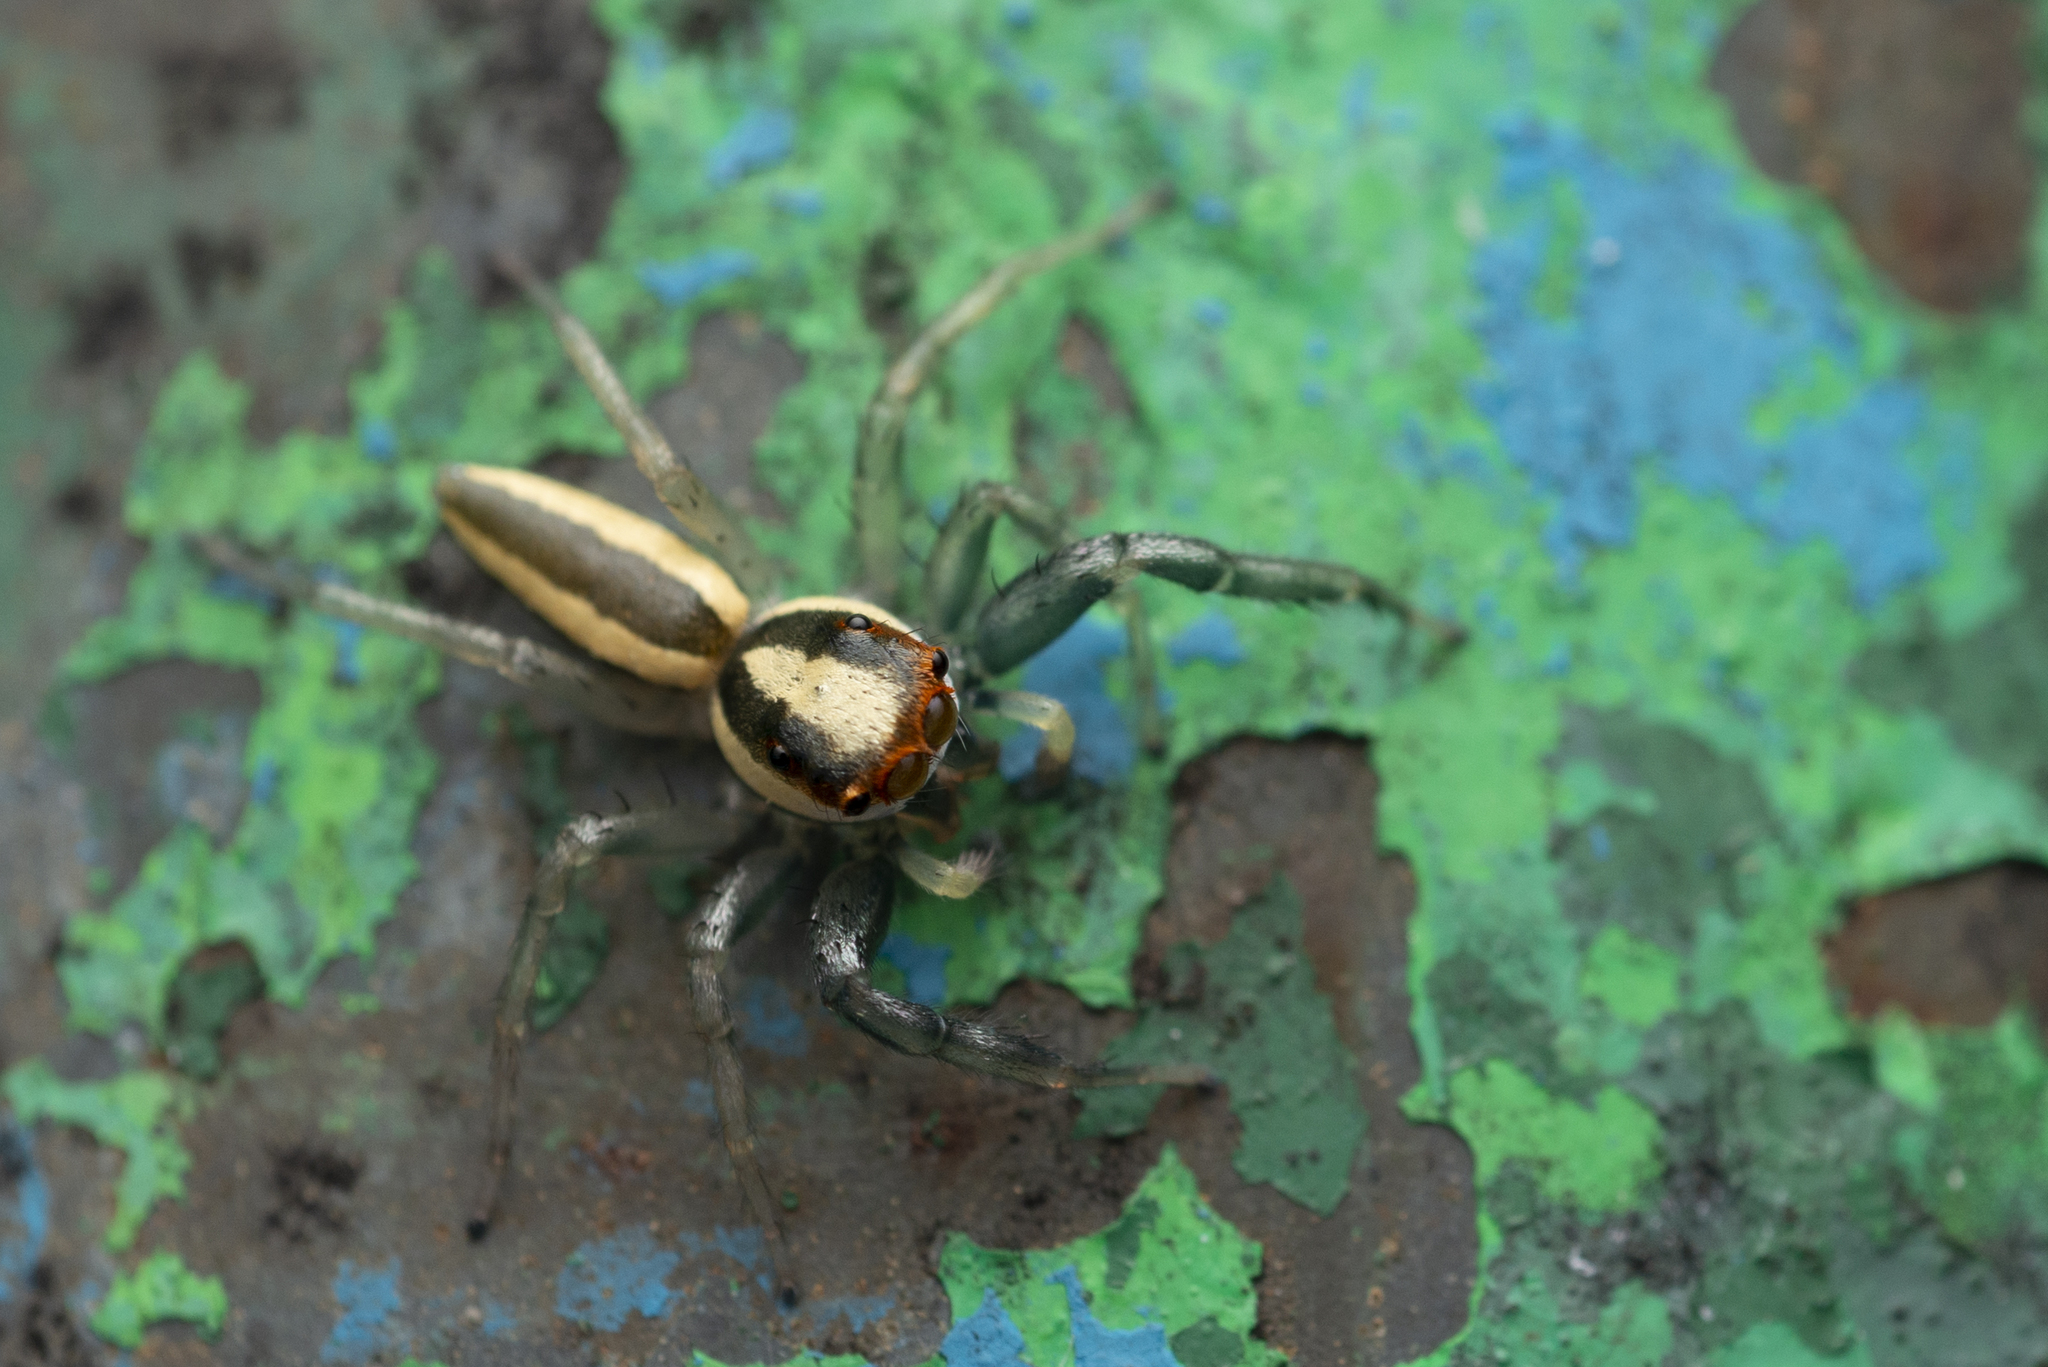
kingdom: Animalia
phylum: Arthropoda
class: Arachnida
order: Araneae
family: Salticidae
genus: Epocilla
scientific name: Epocilla blairei
